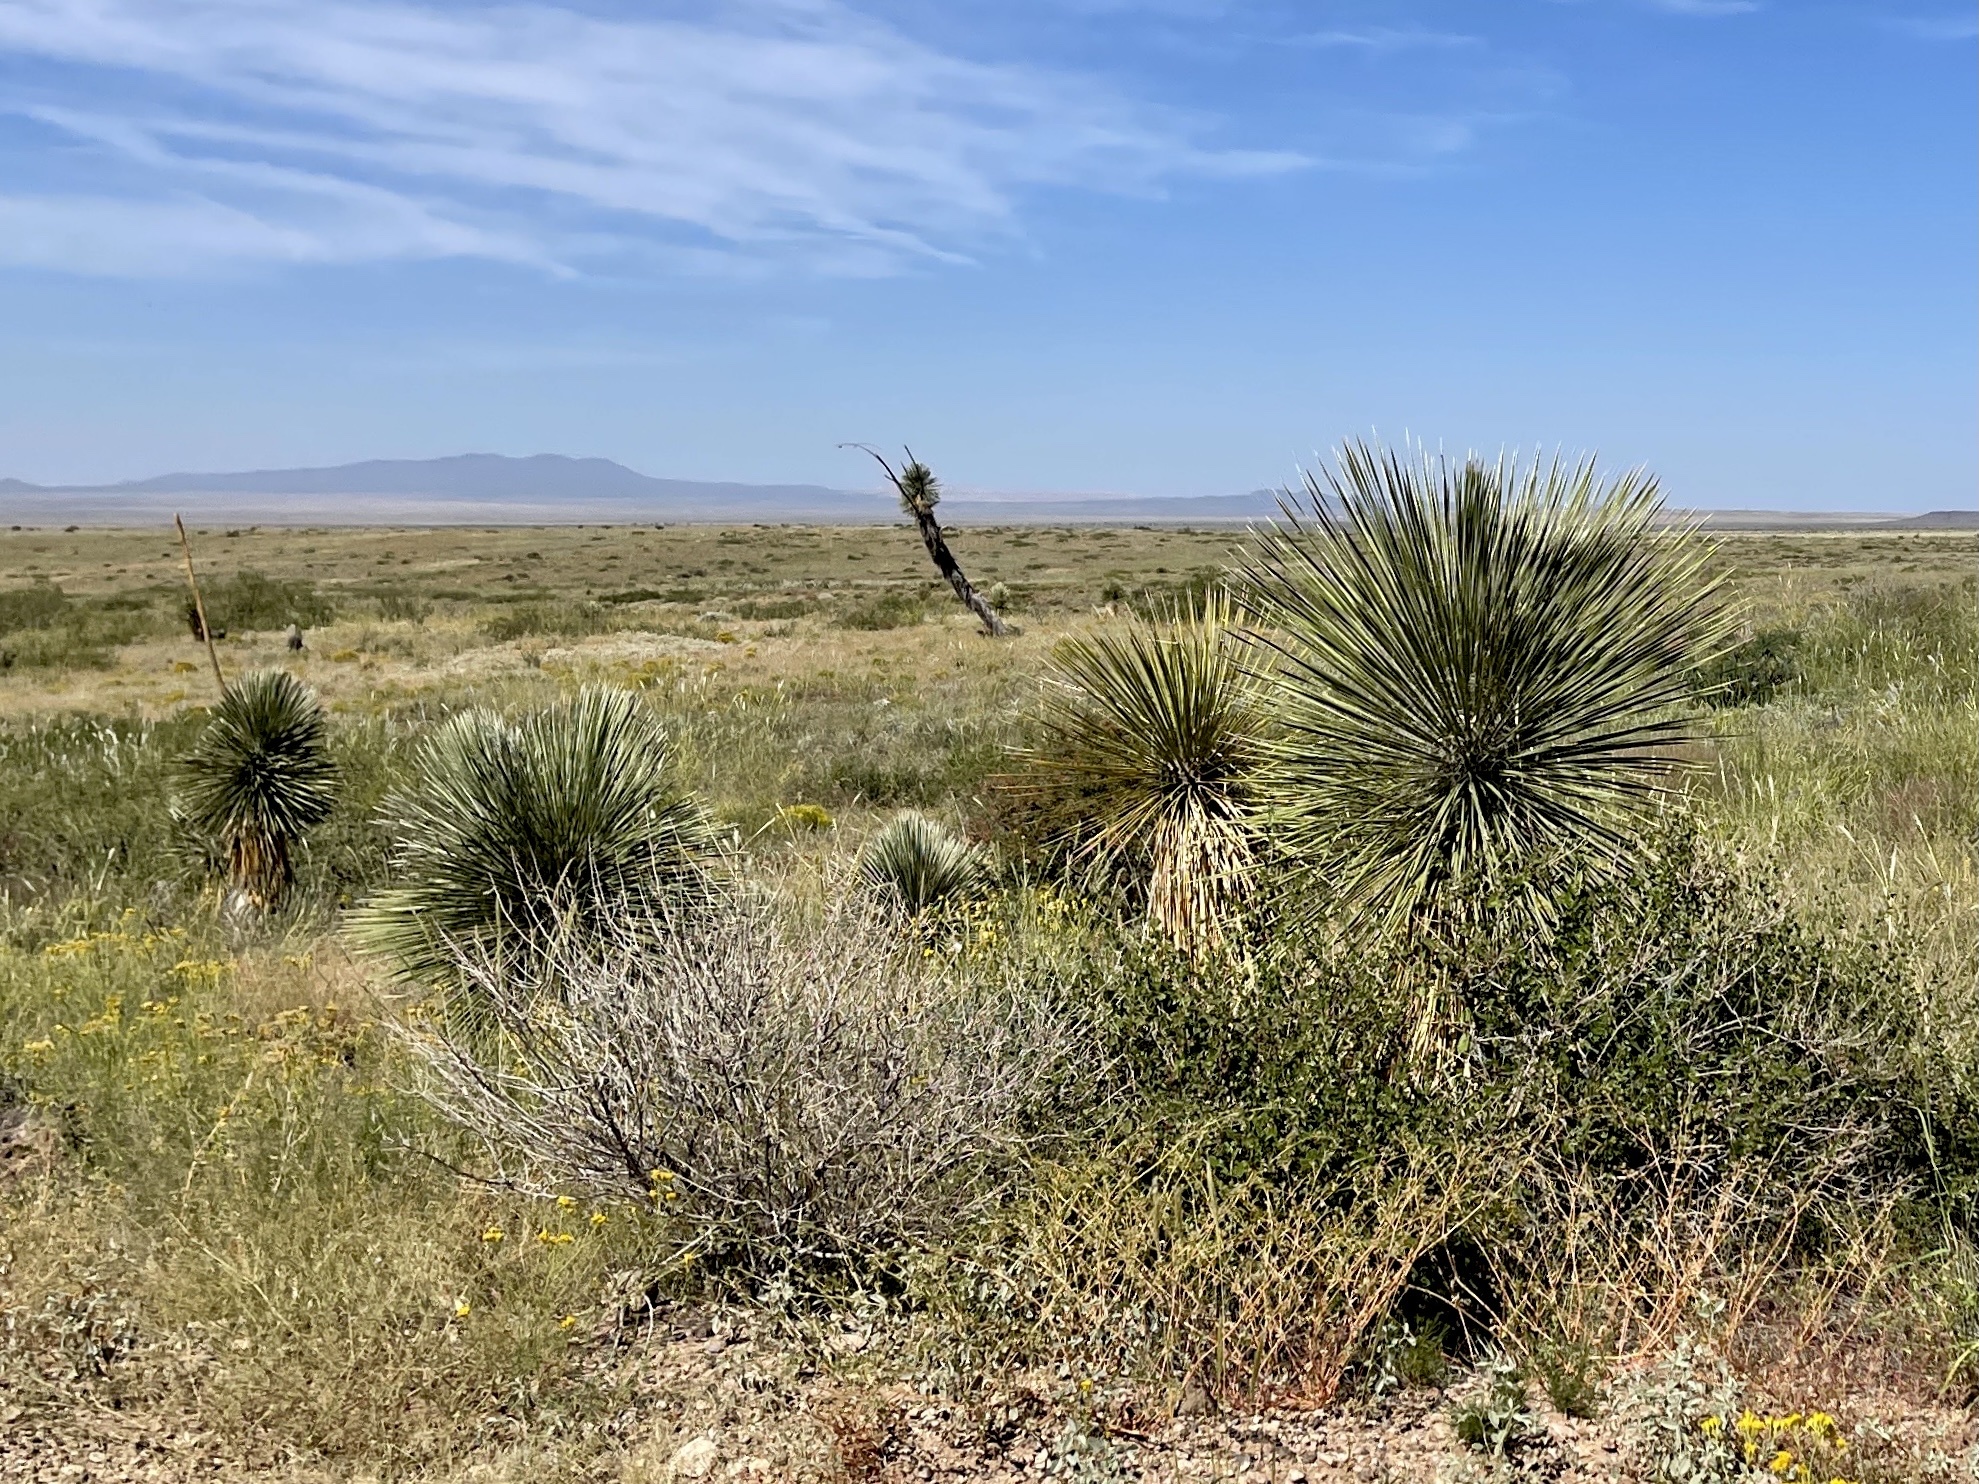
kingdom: Plantae
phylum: Tracheophyta
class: Liliopsida
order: Asparagales
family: Asparagaceae
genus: Yucca
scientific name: Yucca elata
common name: Palmella
